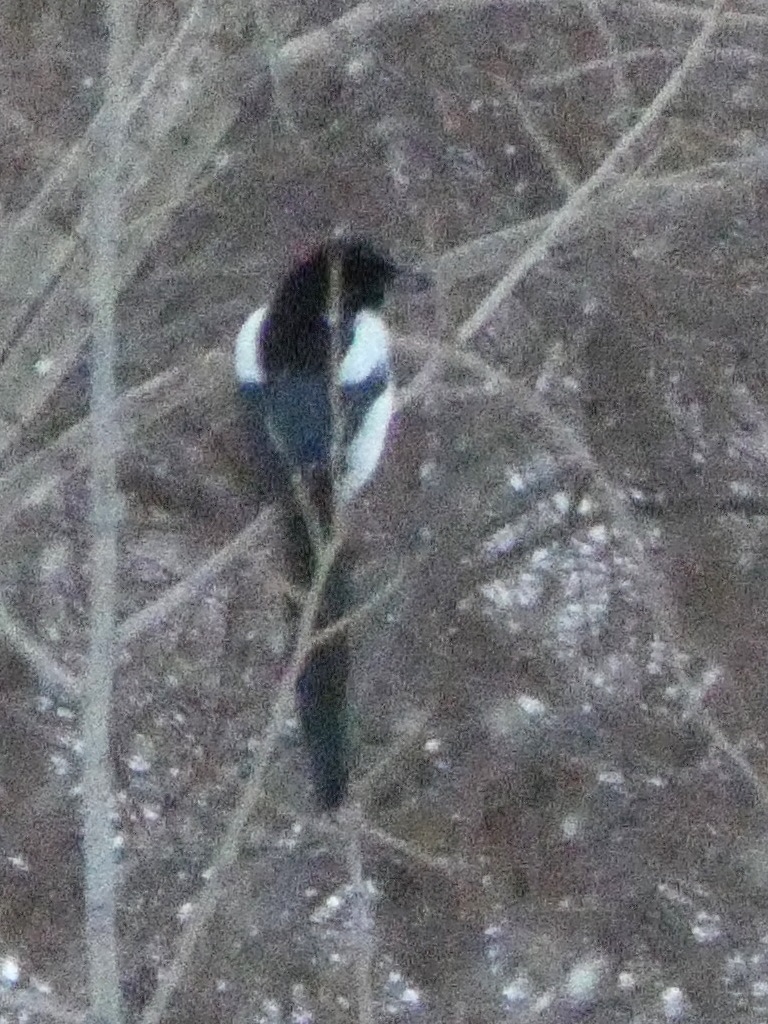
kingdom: Animalia
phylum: Chordata
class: Aves
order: Passeriformes
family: Corvidae
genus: Pica
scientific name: Pica pica
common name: Eurasian magpie
